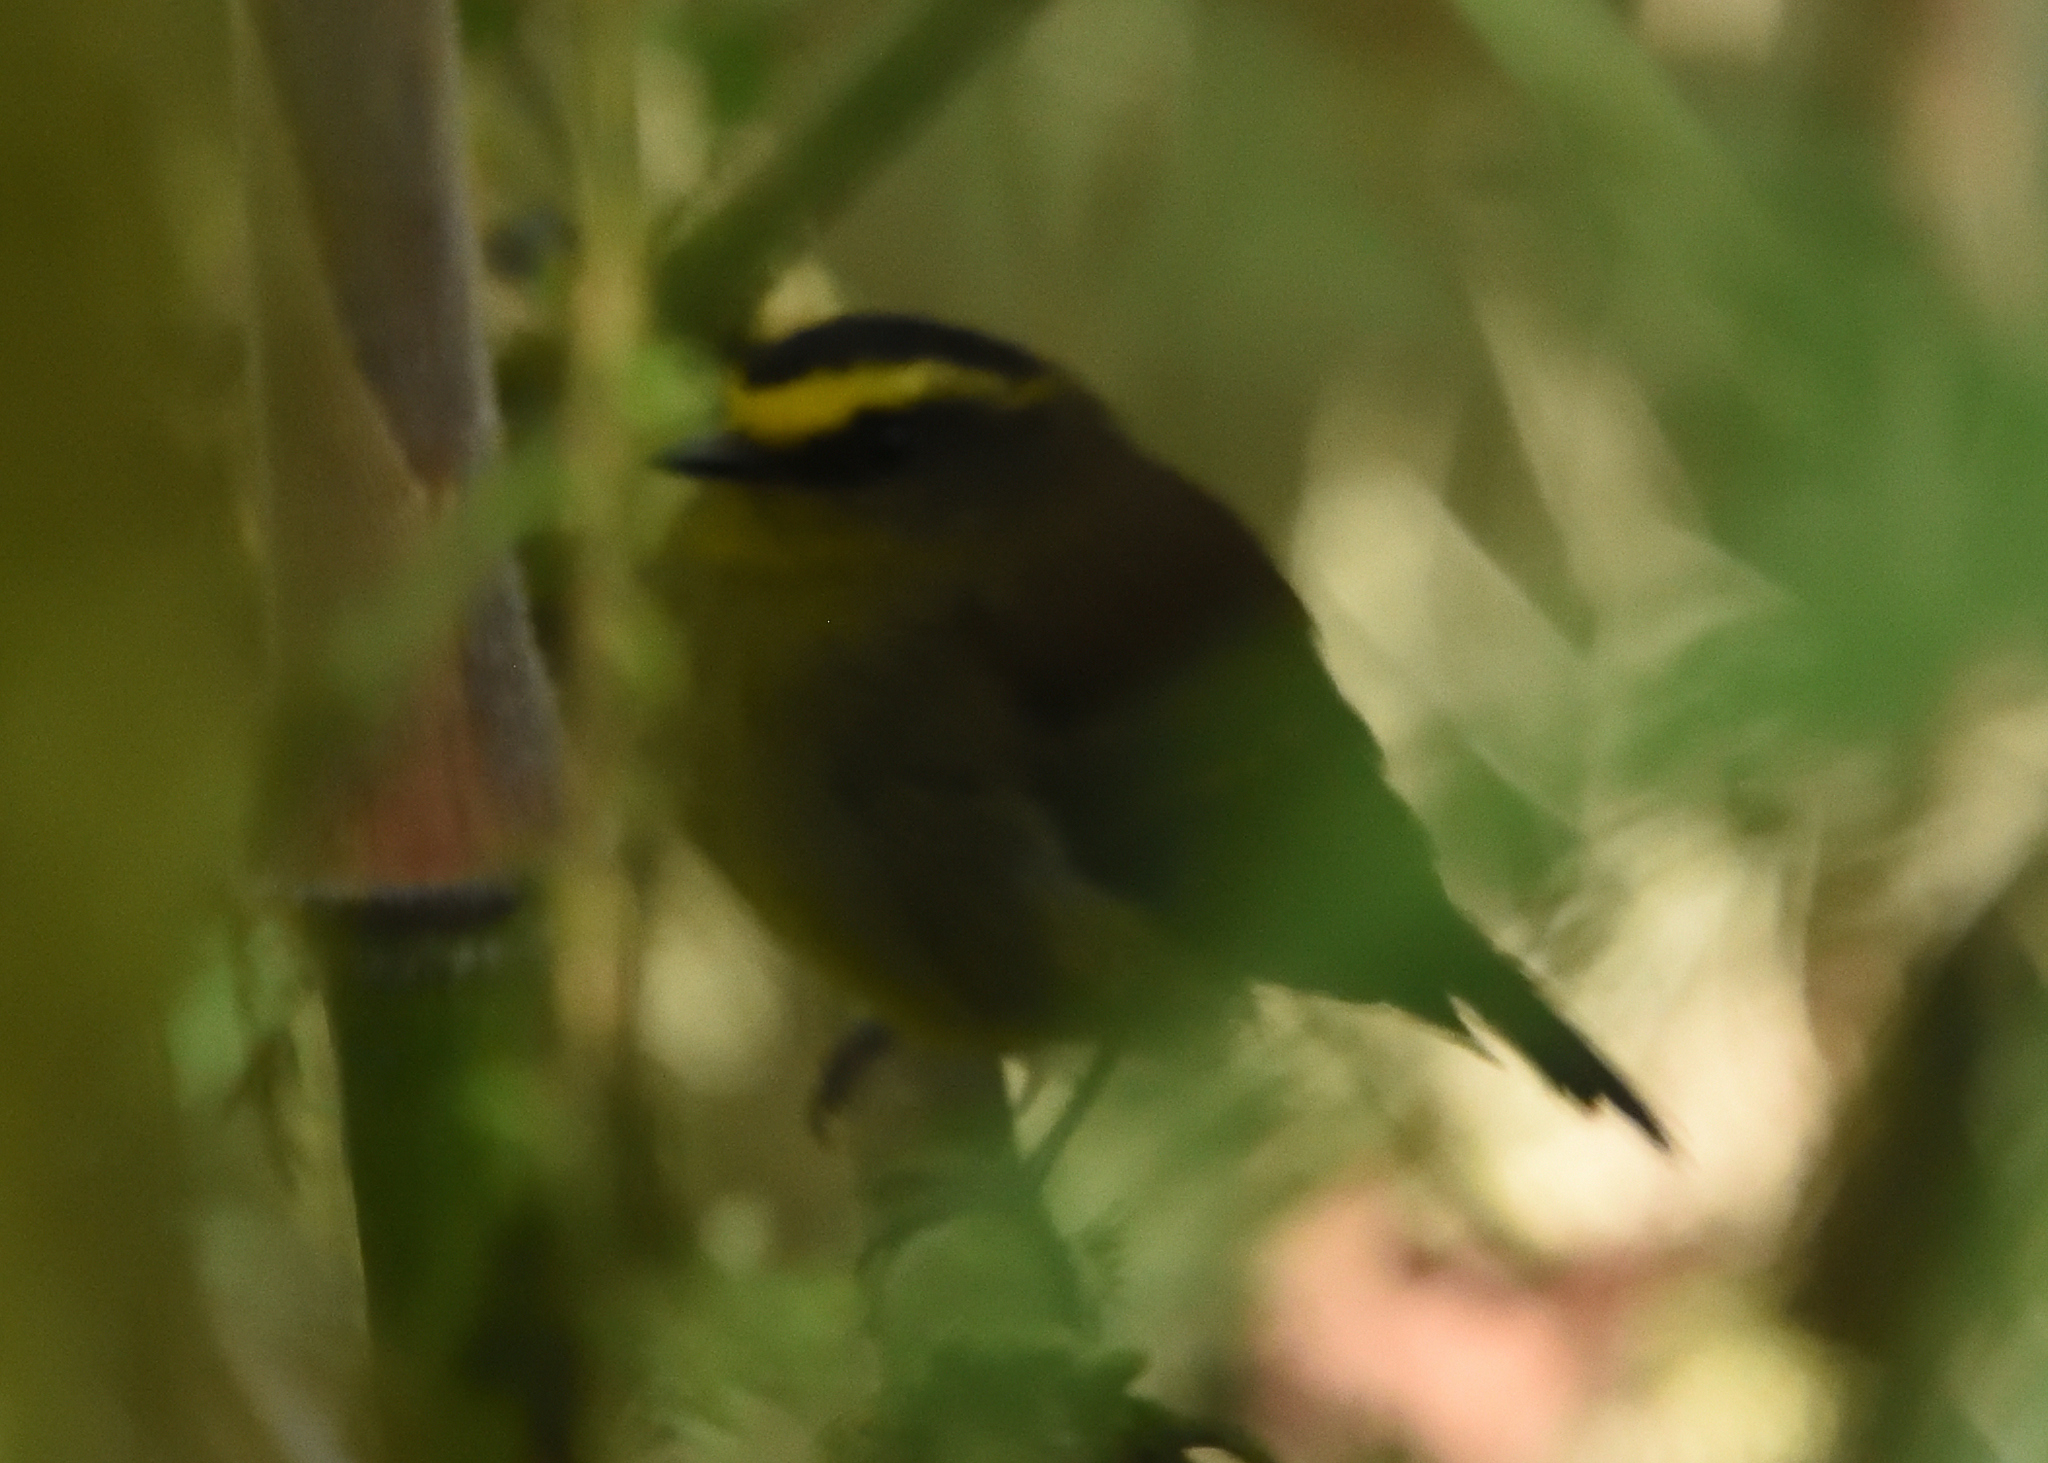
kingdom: Animalia
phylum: Chordata
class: Aves
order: Passeriformes
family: Tyrannidae
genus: Ochthoeca
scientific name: Ochthoeca diadema
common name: Yellow-bellied chat-tyrant
